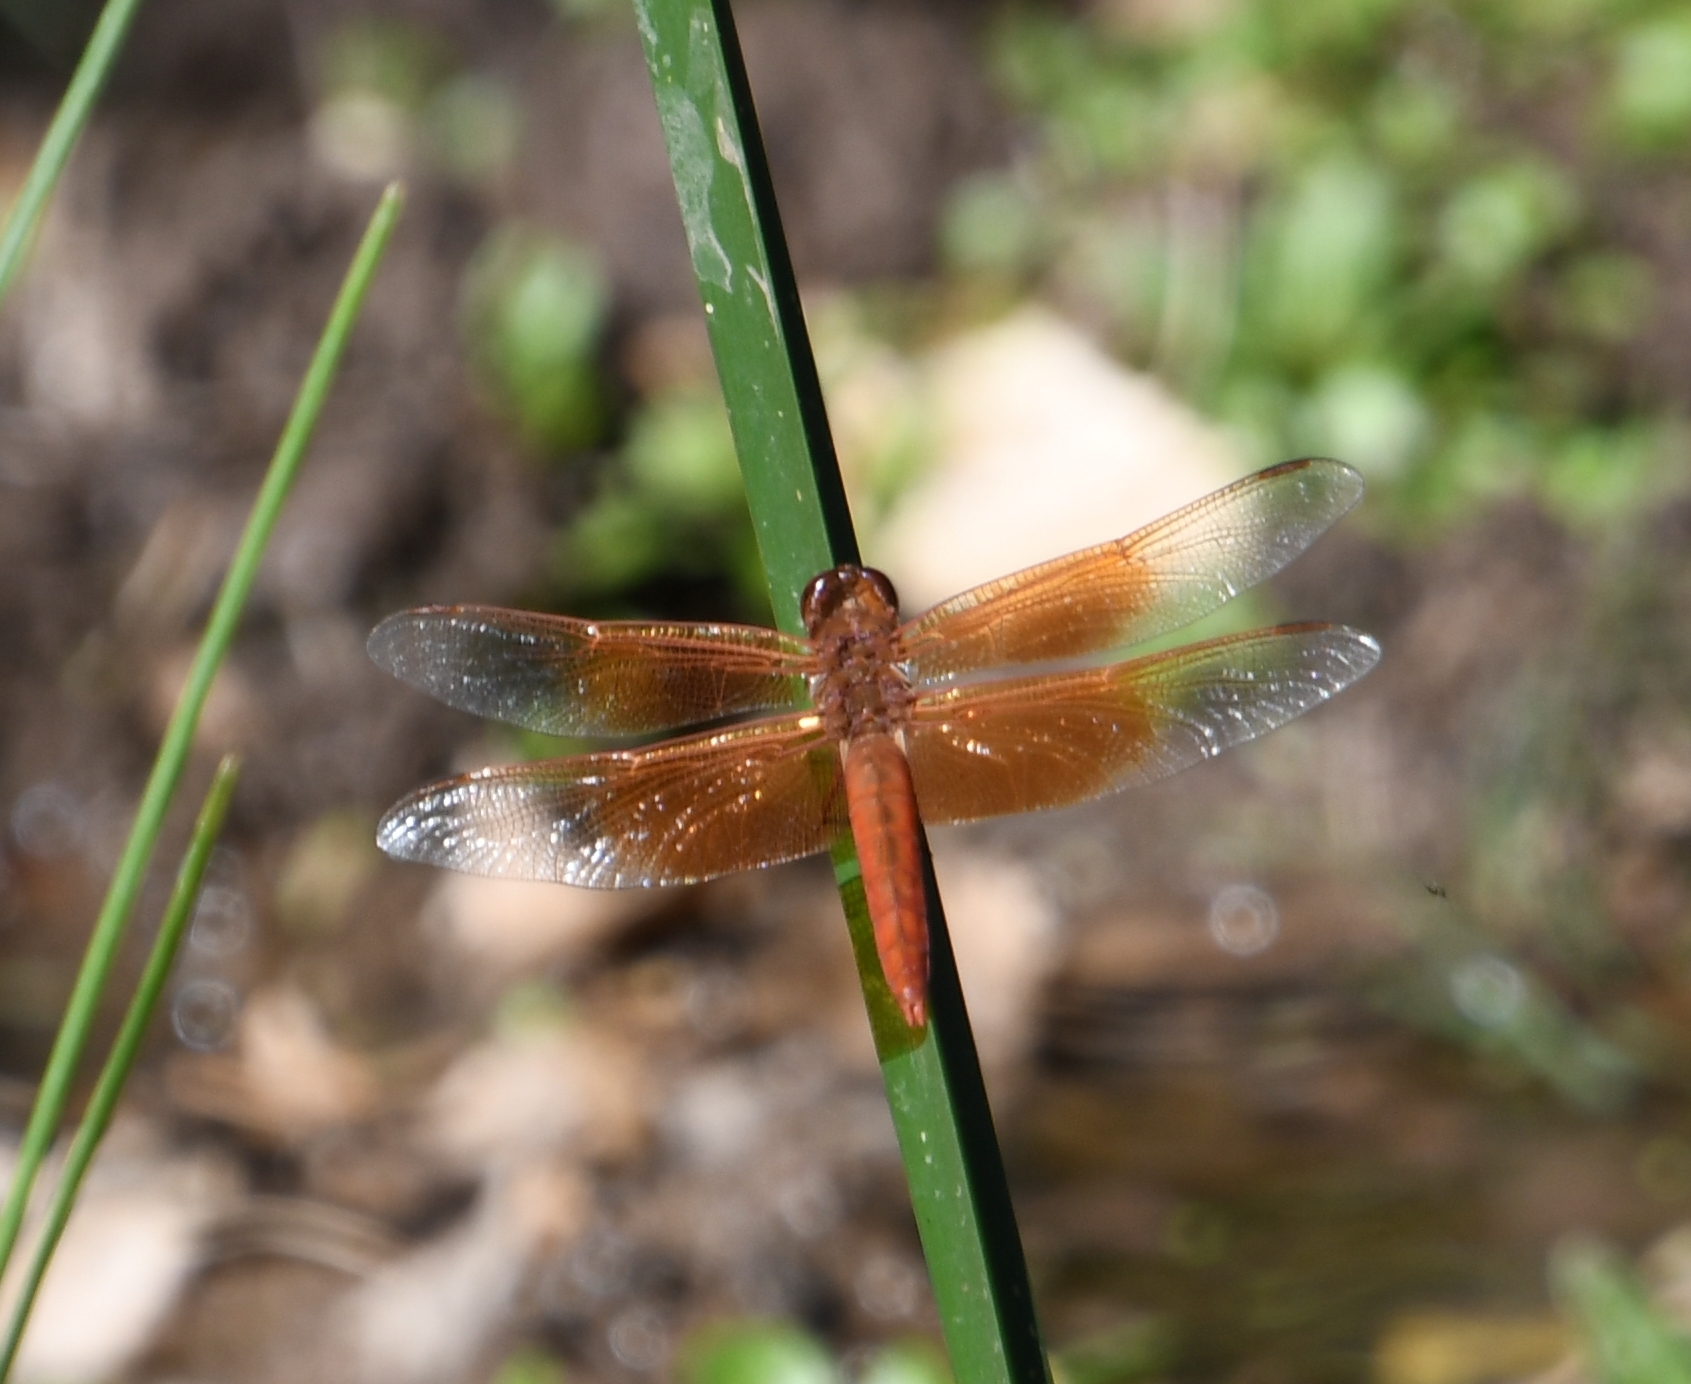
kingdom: Animalia
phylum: Arthropoda
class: Insecta
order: Odonata
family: Libellulidae
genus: Libellula
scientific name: Libellula saturata
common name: Flame skimmer
